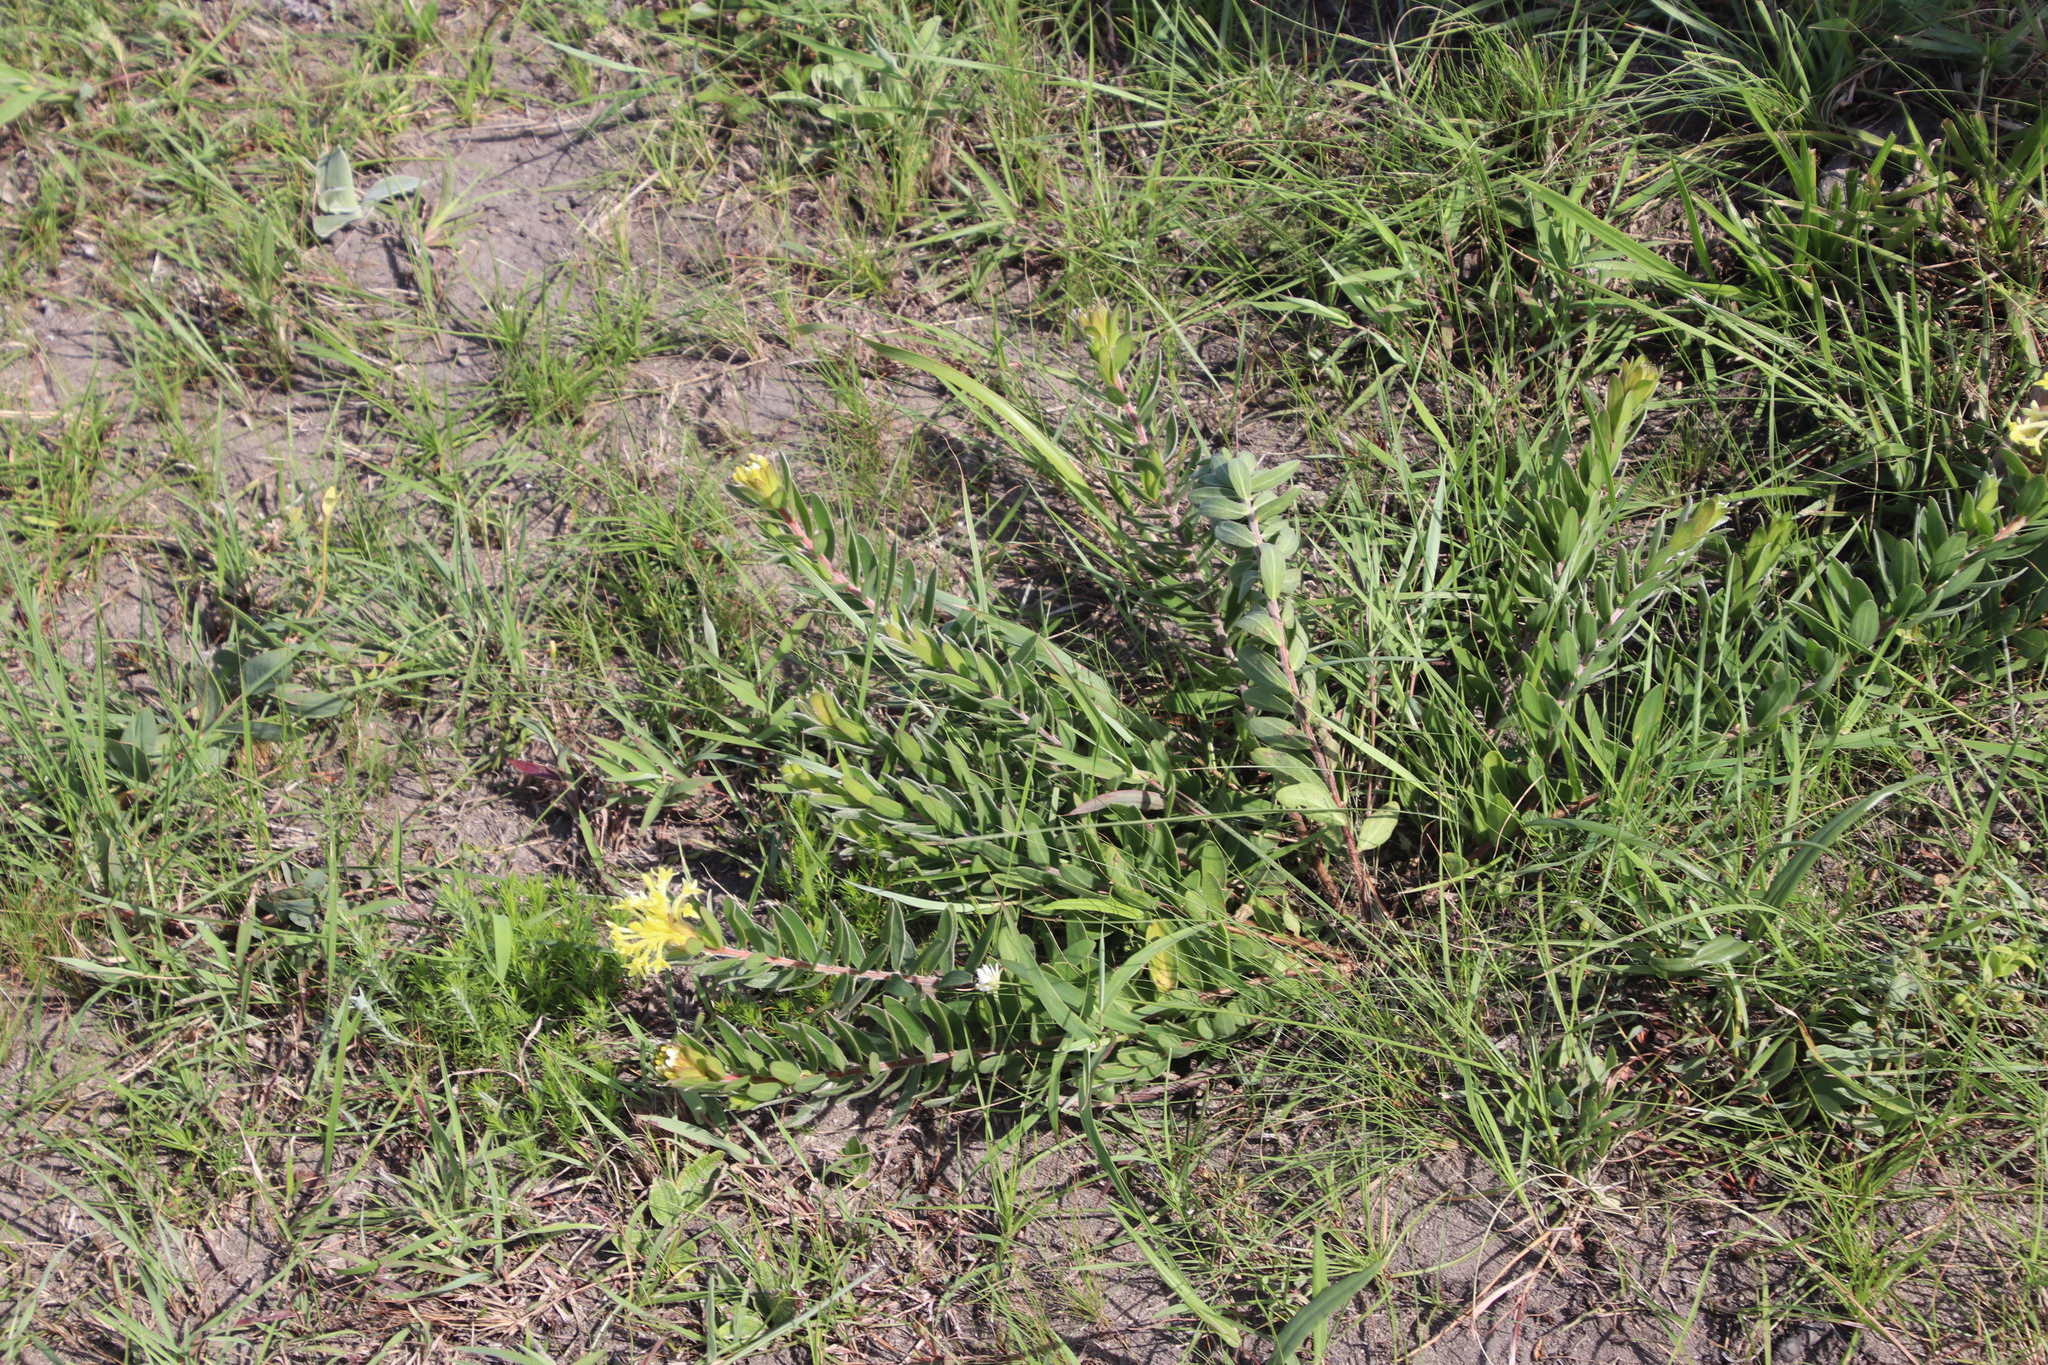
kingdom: Plantae
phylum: Tracheophyta
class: Magnoliopsida
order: Malvales
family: Thymelaeaceae
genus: Gnidia
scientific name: Gnidia anthylloides
